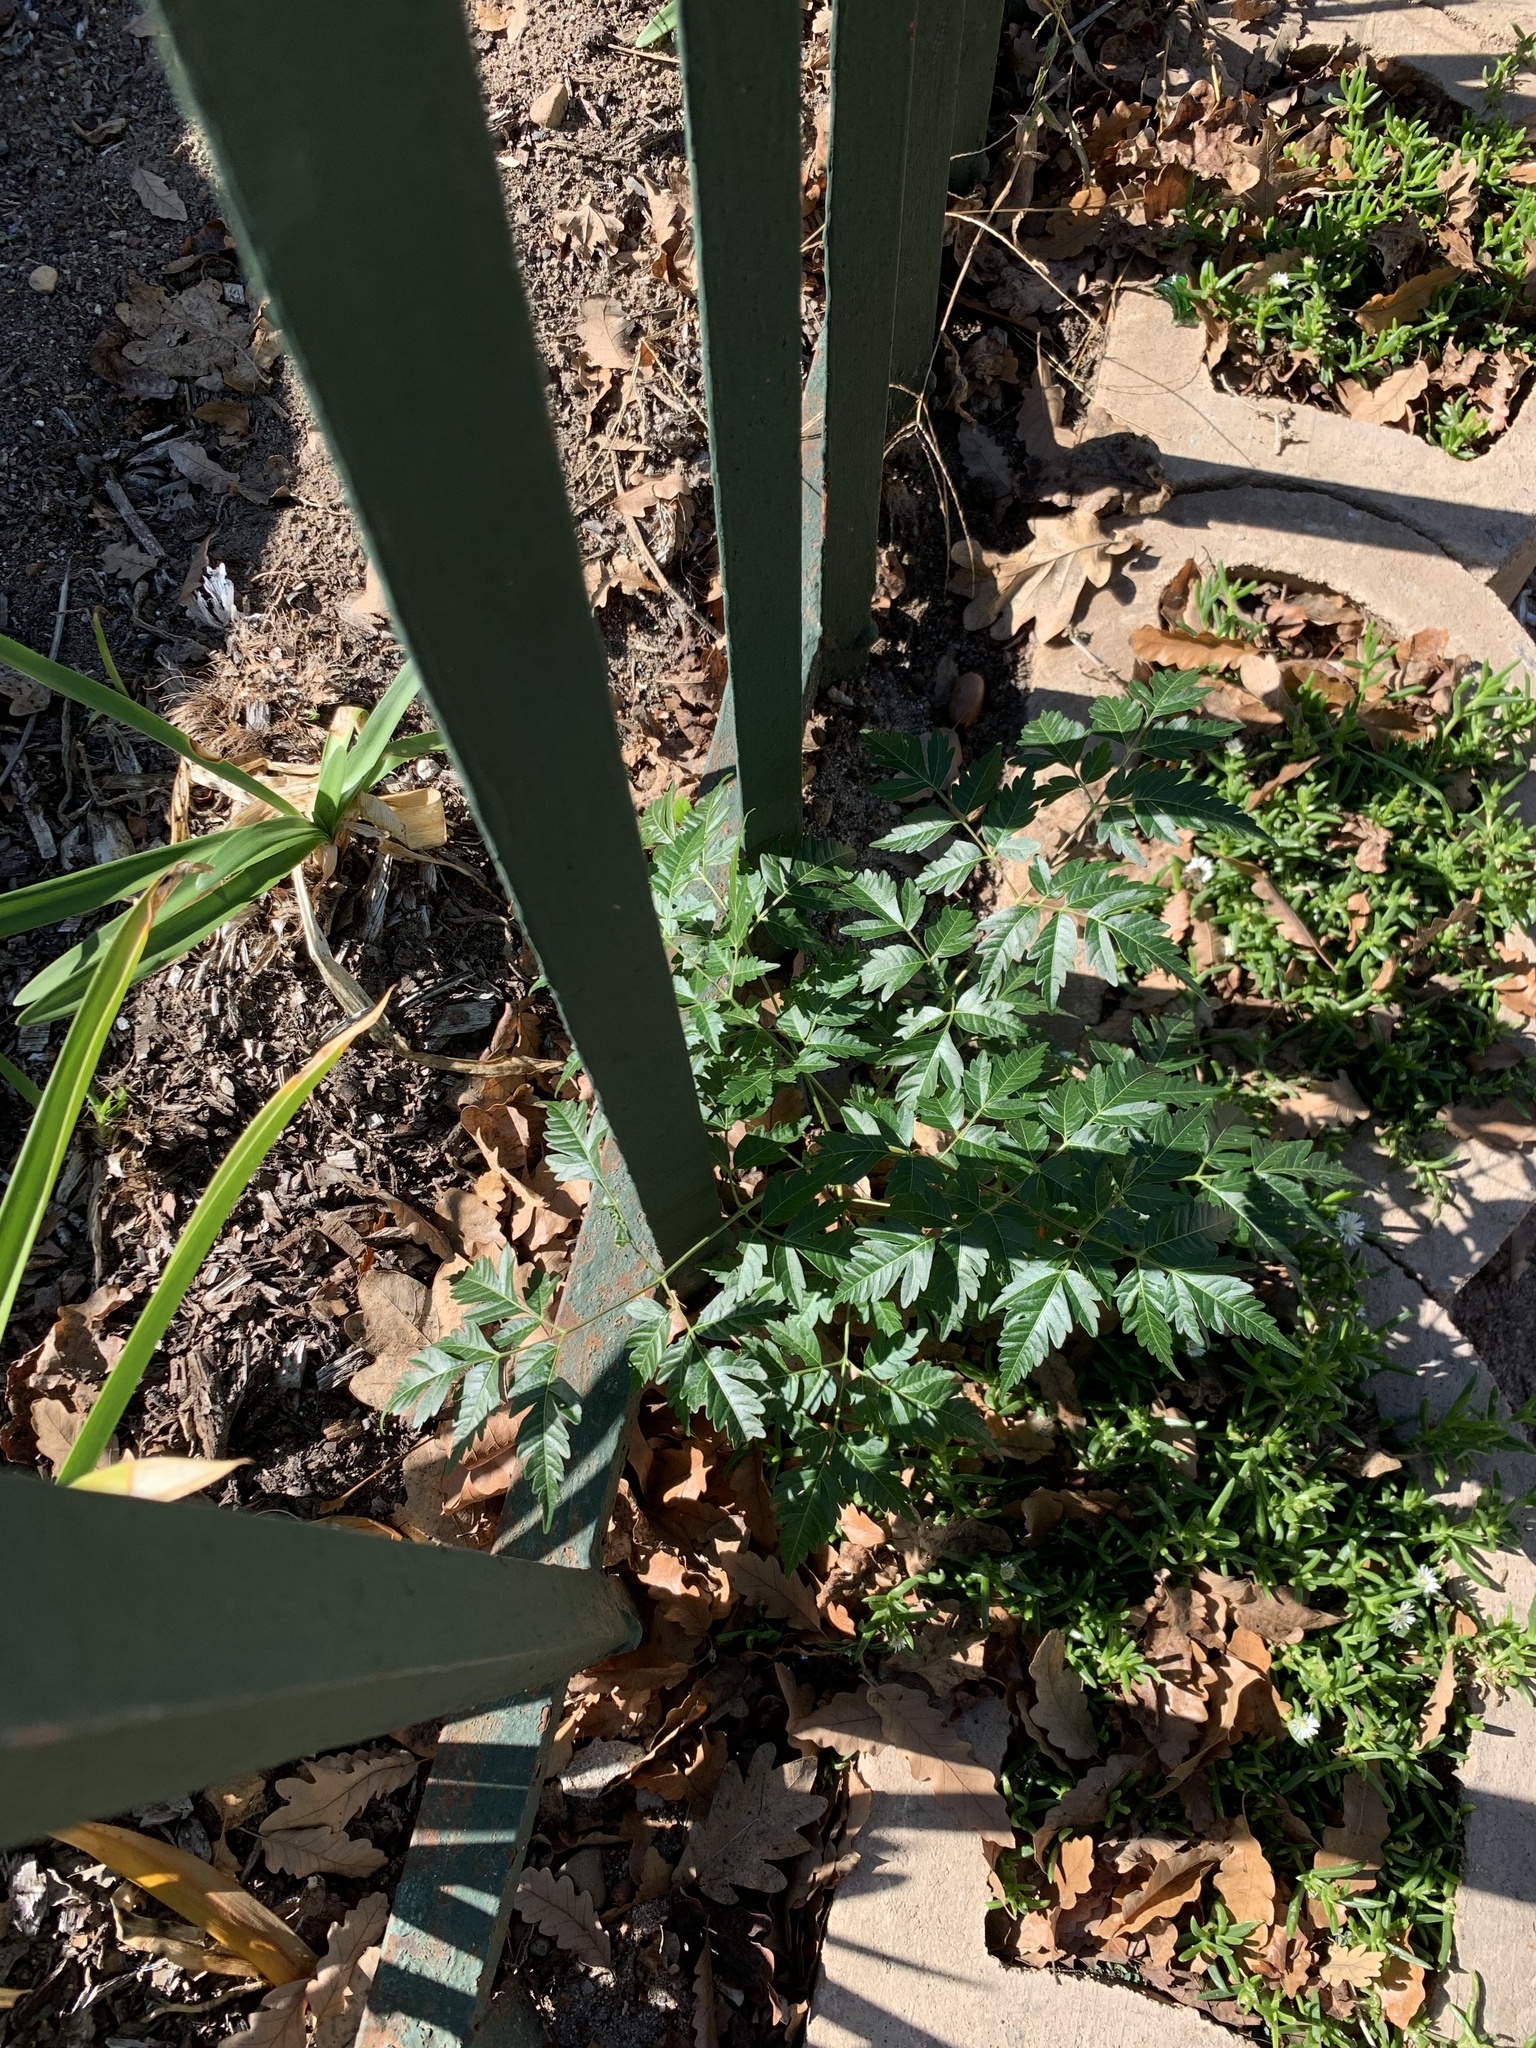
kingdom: Plantae
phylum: Tracheophyta
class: Magnoliopsida
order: Sapindales
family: Meliaceae
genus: Melia
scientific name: Melia azedarach
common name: Chinaberrytree
